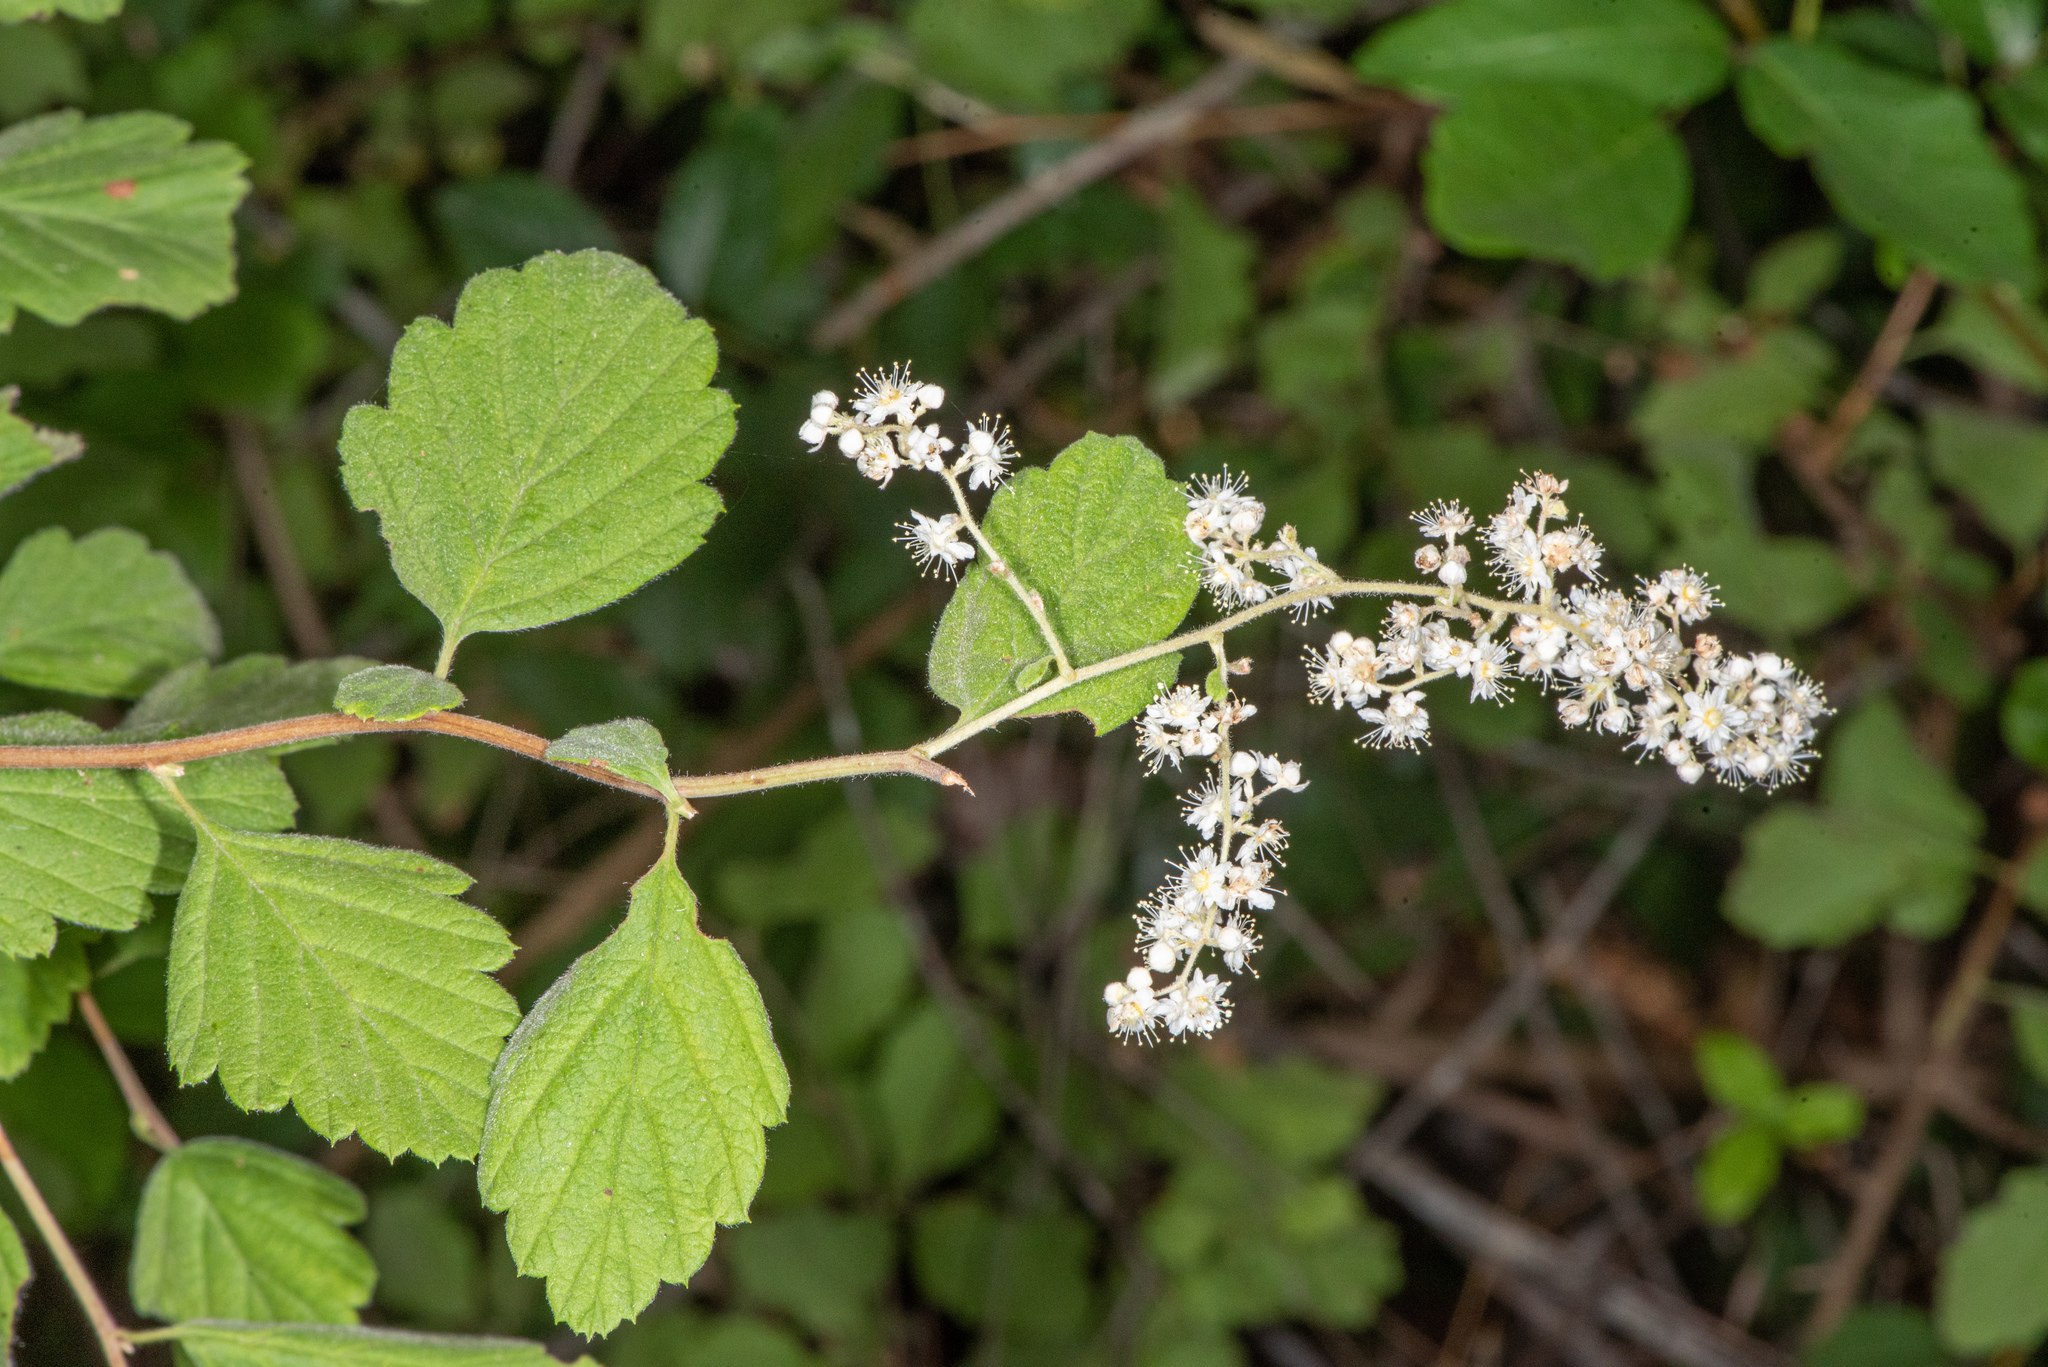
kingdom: Plantae
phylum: Tracheophyta
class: Magnoliopsida
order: Rosales
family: Rosaceae
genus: Holodiscus
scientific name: Holodiscus discolor
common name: Oceanspray
